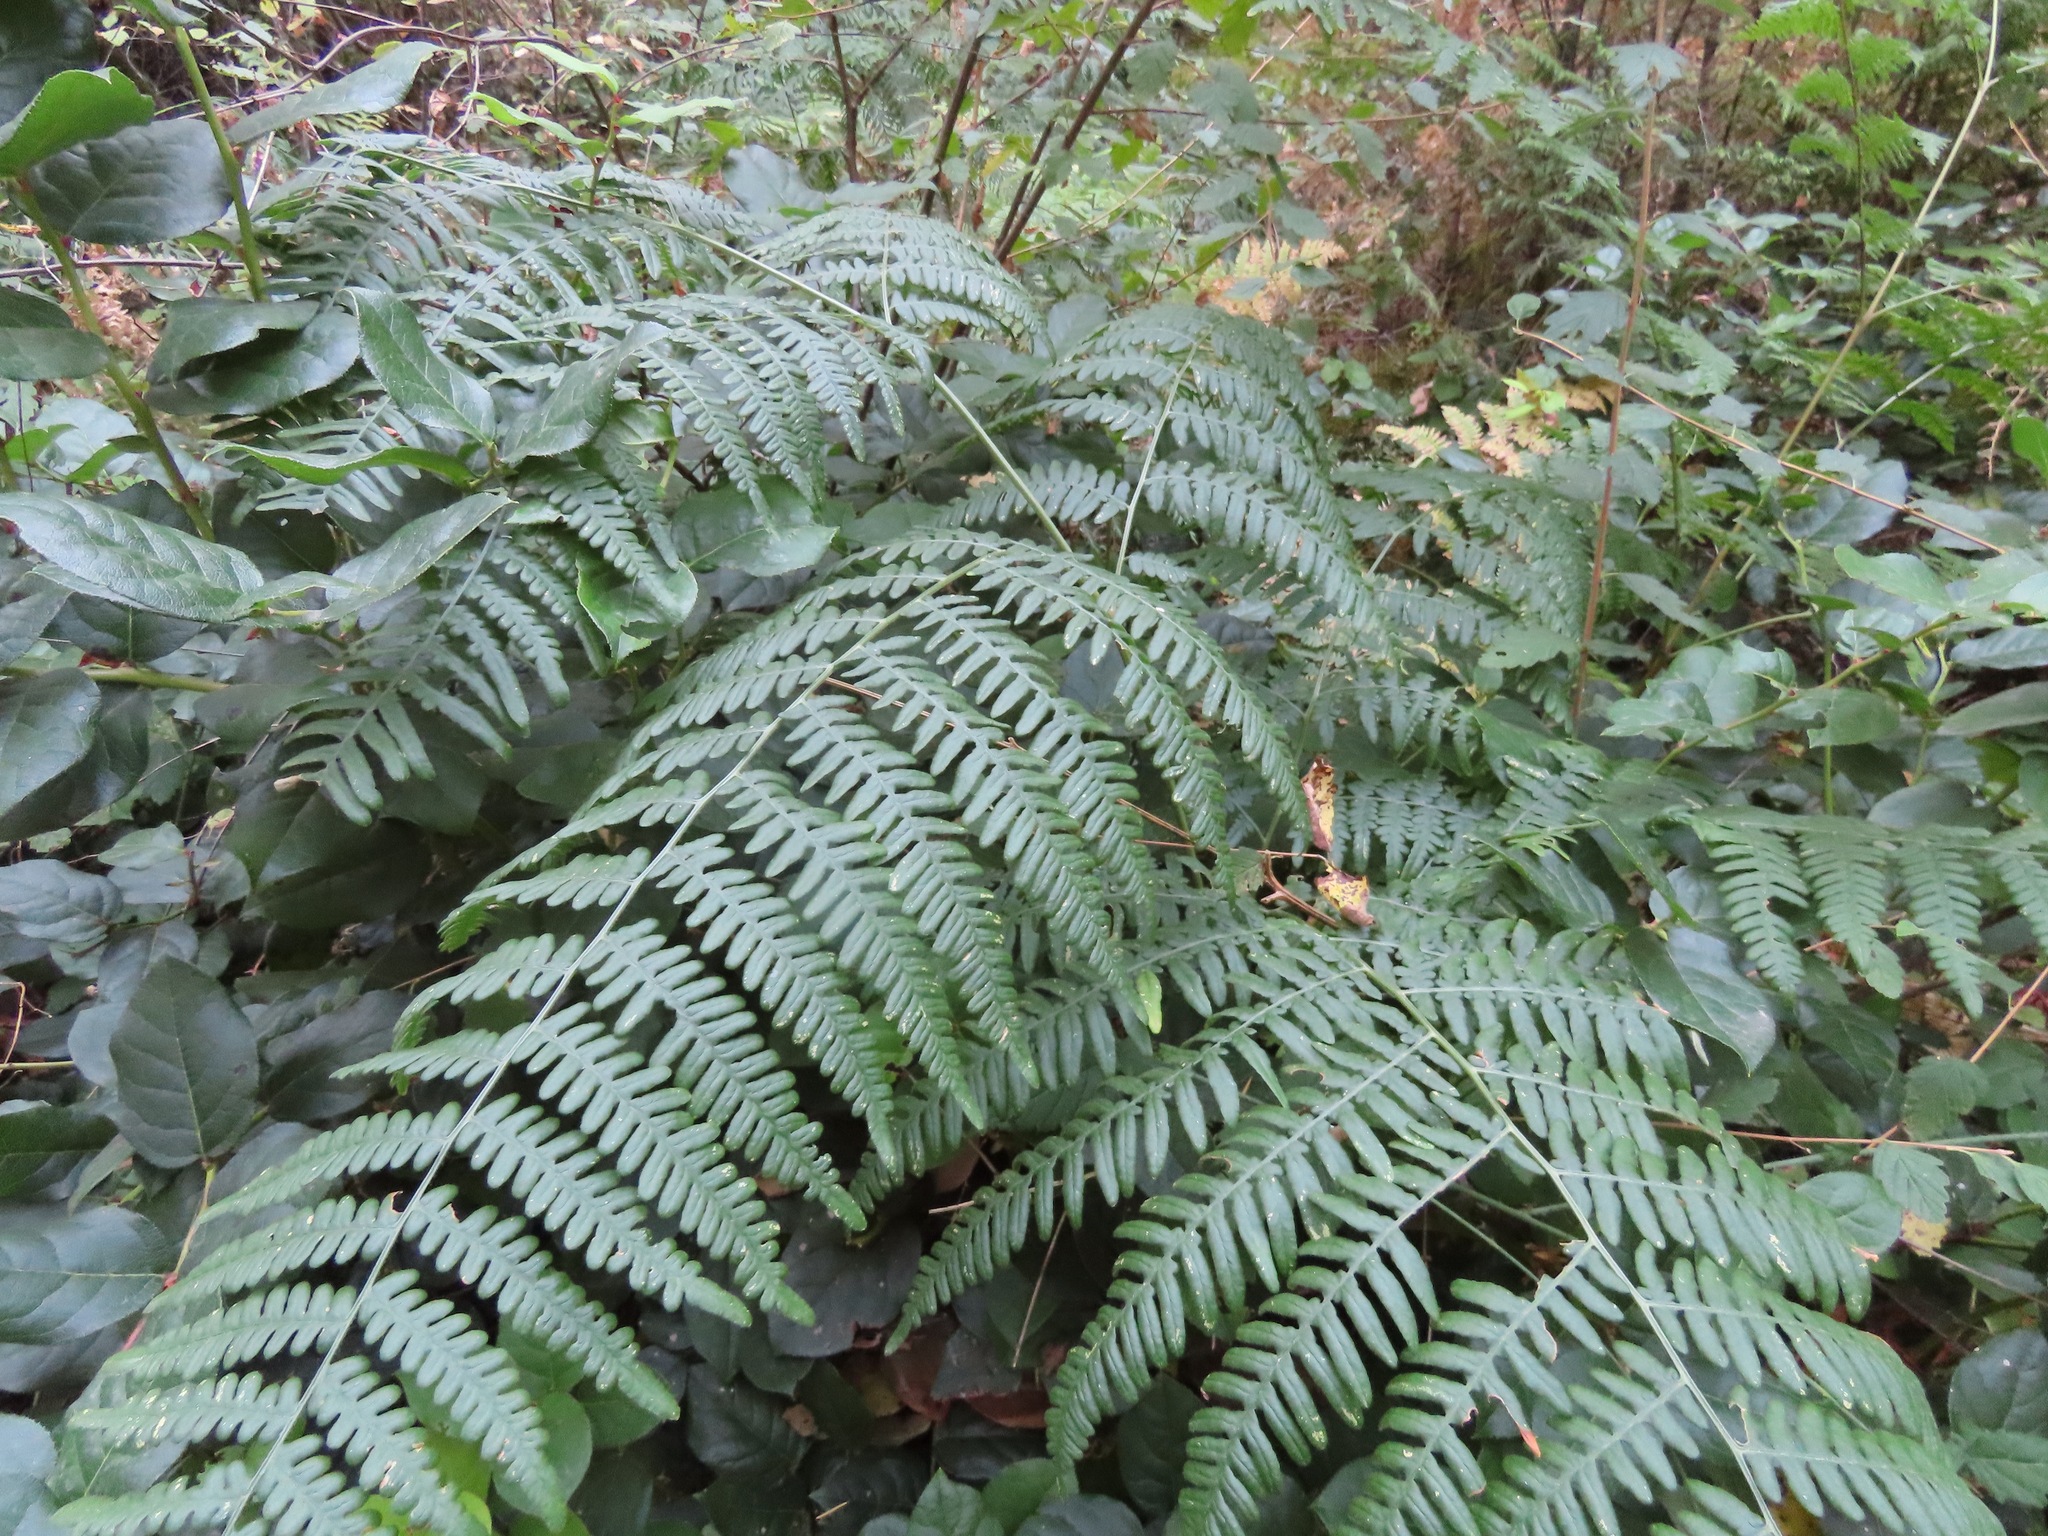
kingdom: Plantae
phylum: Tracheophyta
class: Polypodiopsida
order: Polypodiales
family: Dennstaedtiaceae
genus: Pteridium
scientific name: Pteridium aquilinum
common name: Bracken
